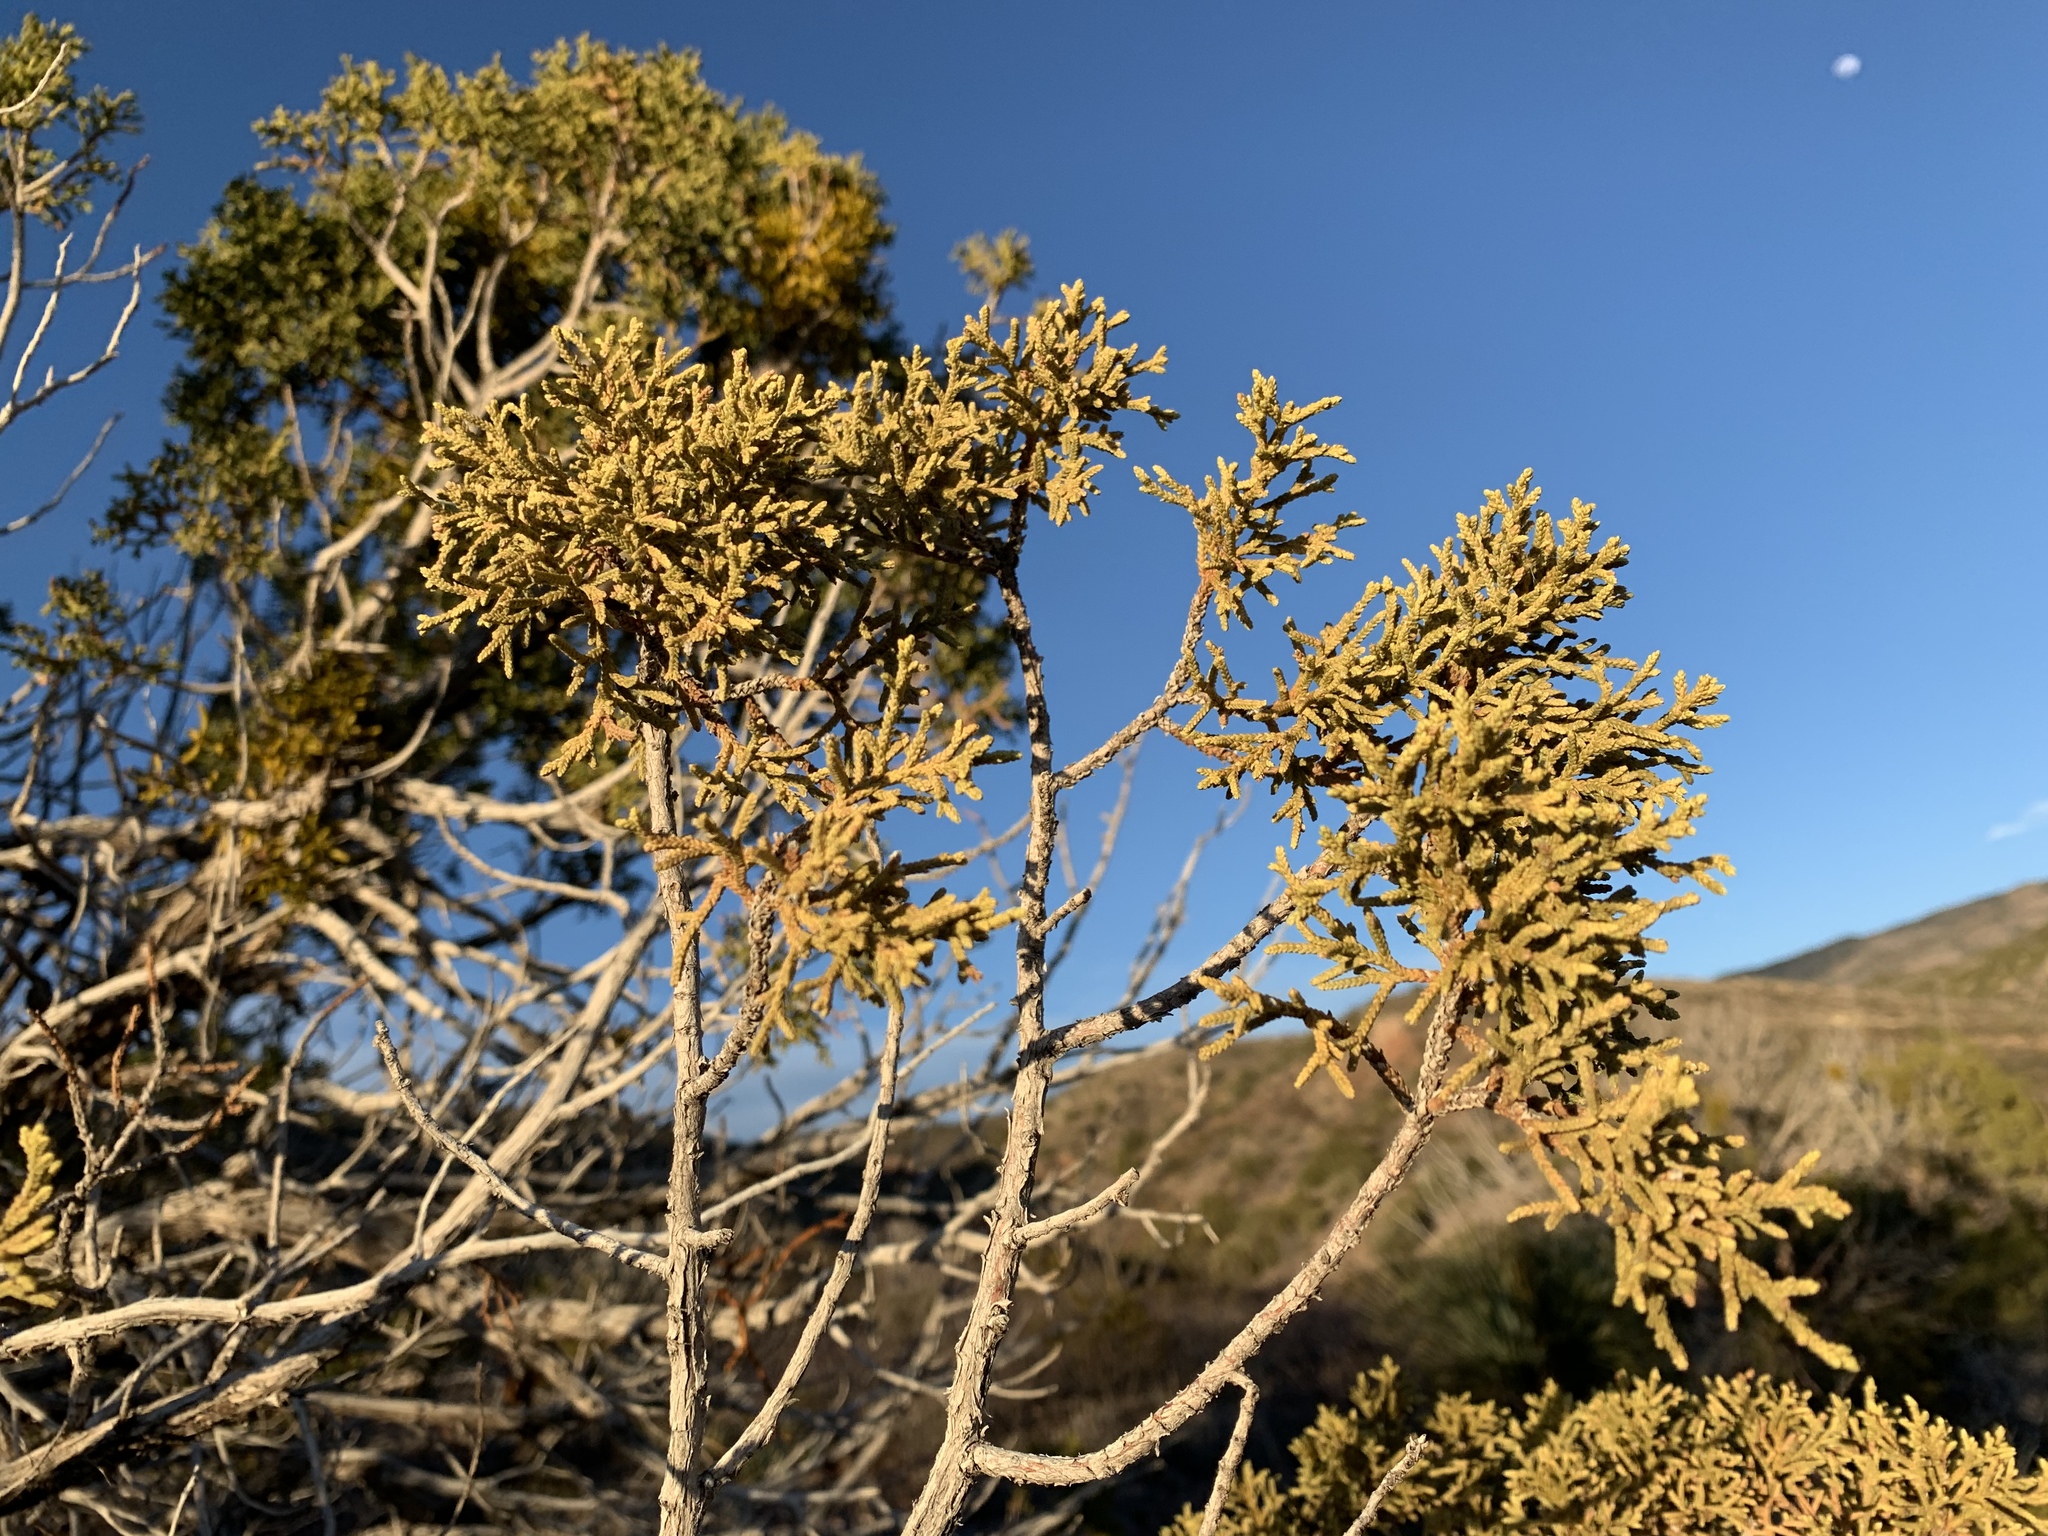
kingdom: Plantae
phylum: Tracheophyta
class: Pinopsida
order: Pinales
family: Cupressaceae
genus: Juniperus
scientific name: Juniperus monosperma
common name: One-seed juniper
